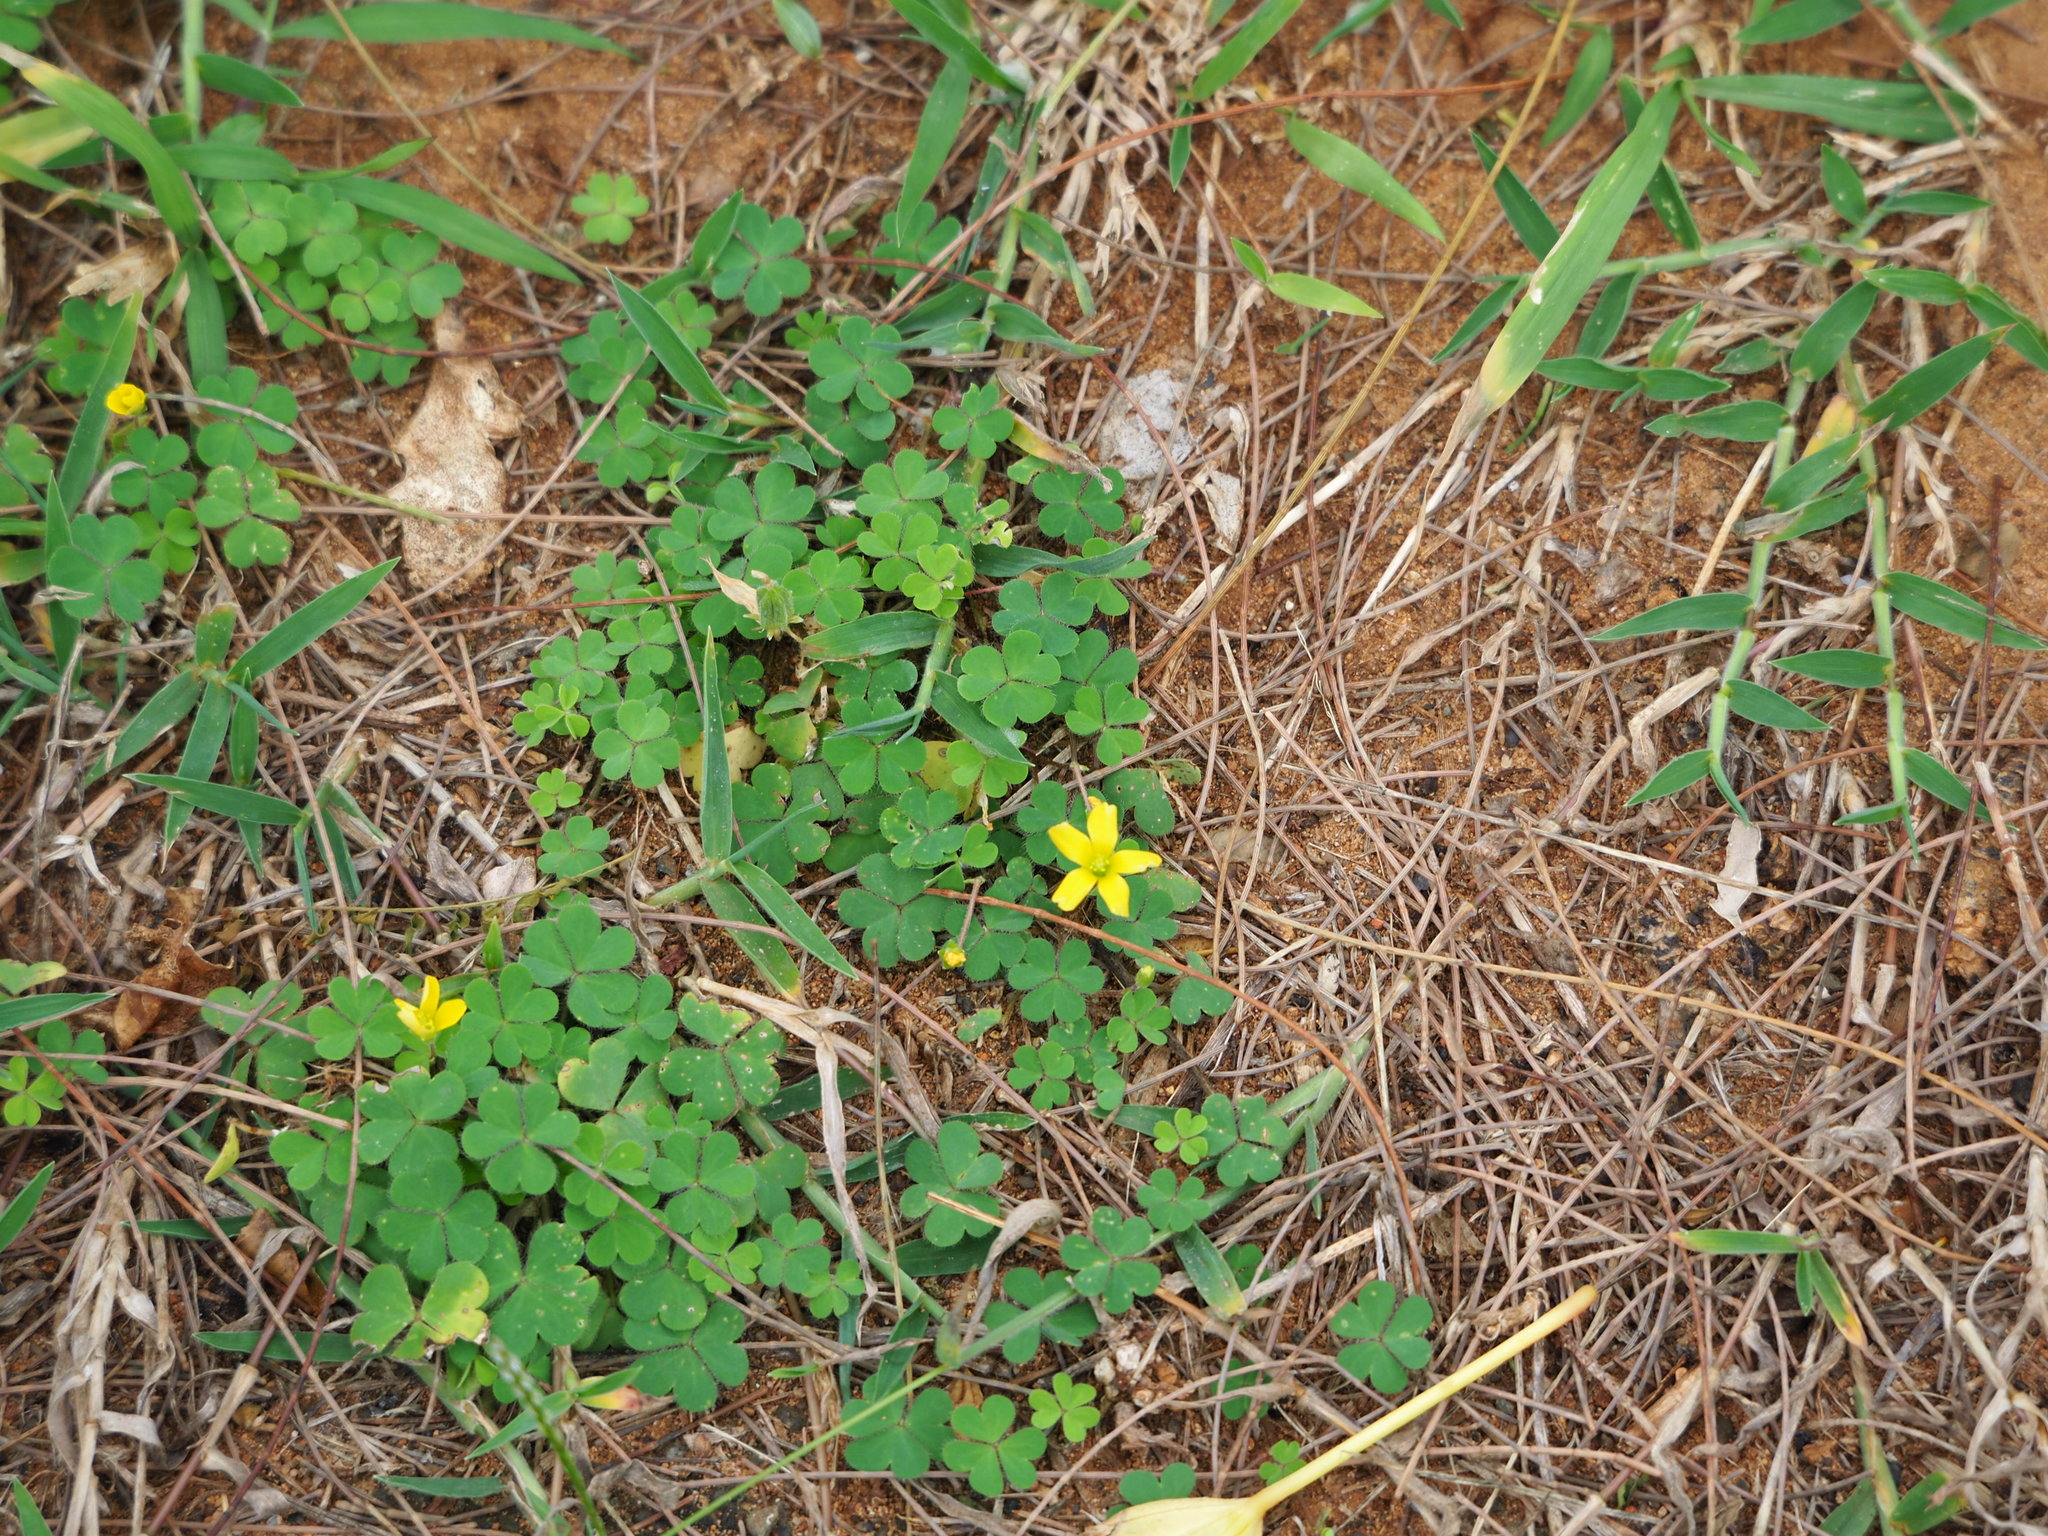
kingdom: Plantae
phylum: Tracheophyta
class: Magnoliopsida
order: Oxalidales
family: Oxalidaceae
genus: Oxalis
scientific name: Oxalis corniculata
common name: Procumbent yellow-sorrel
